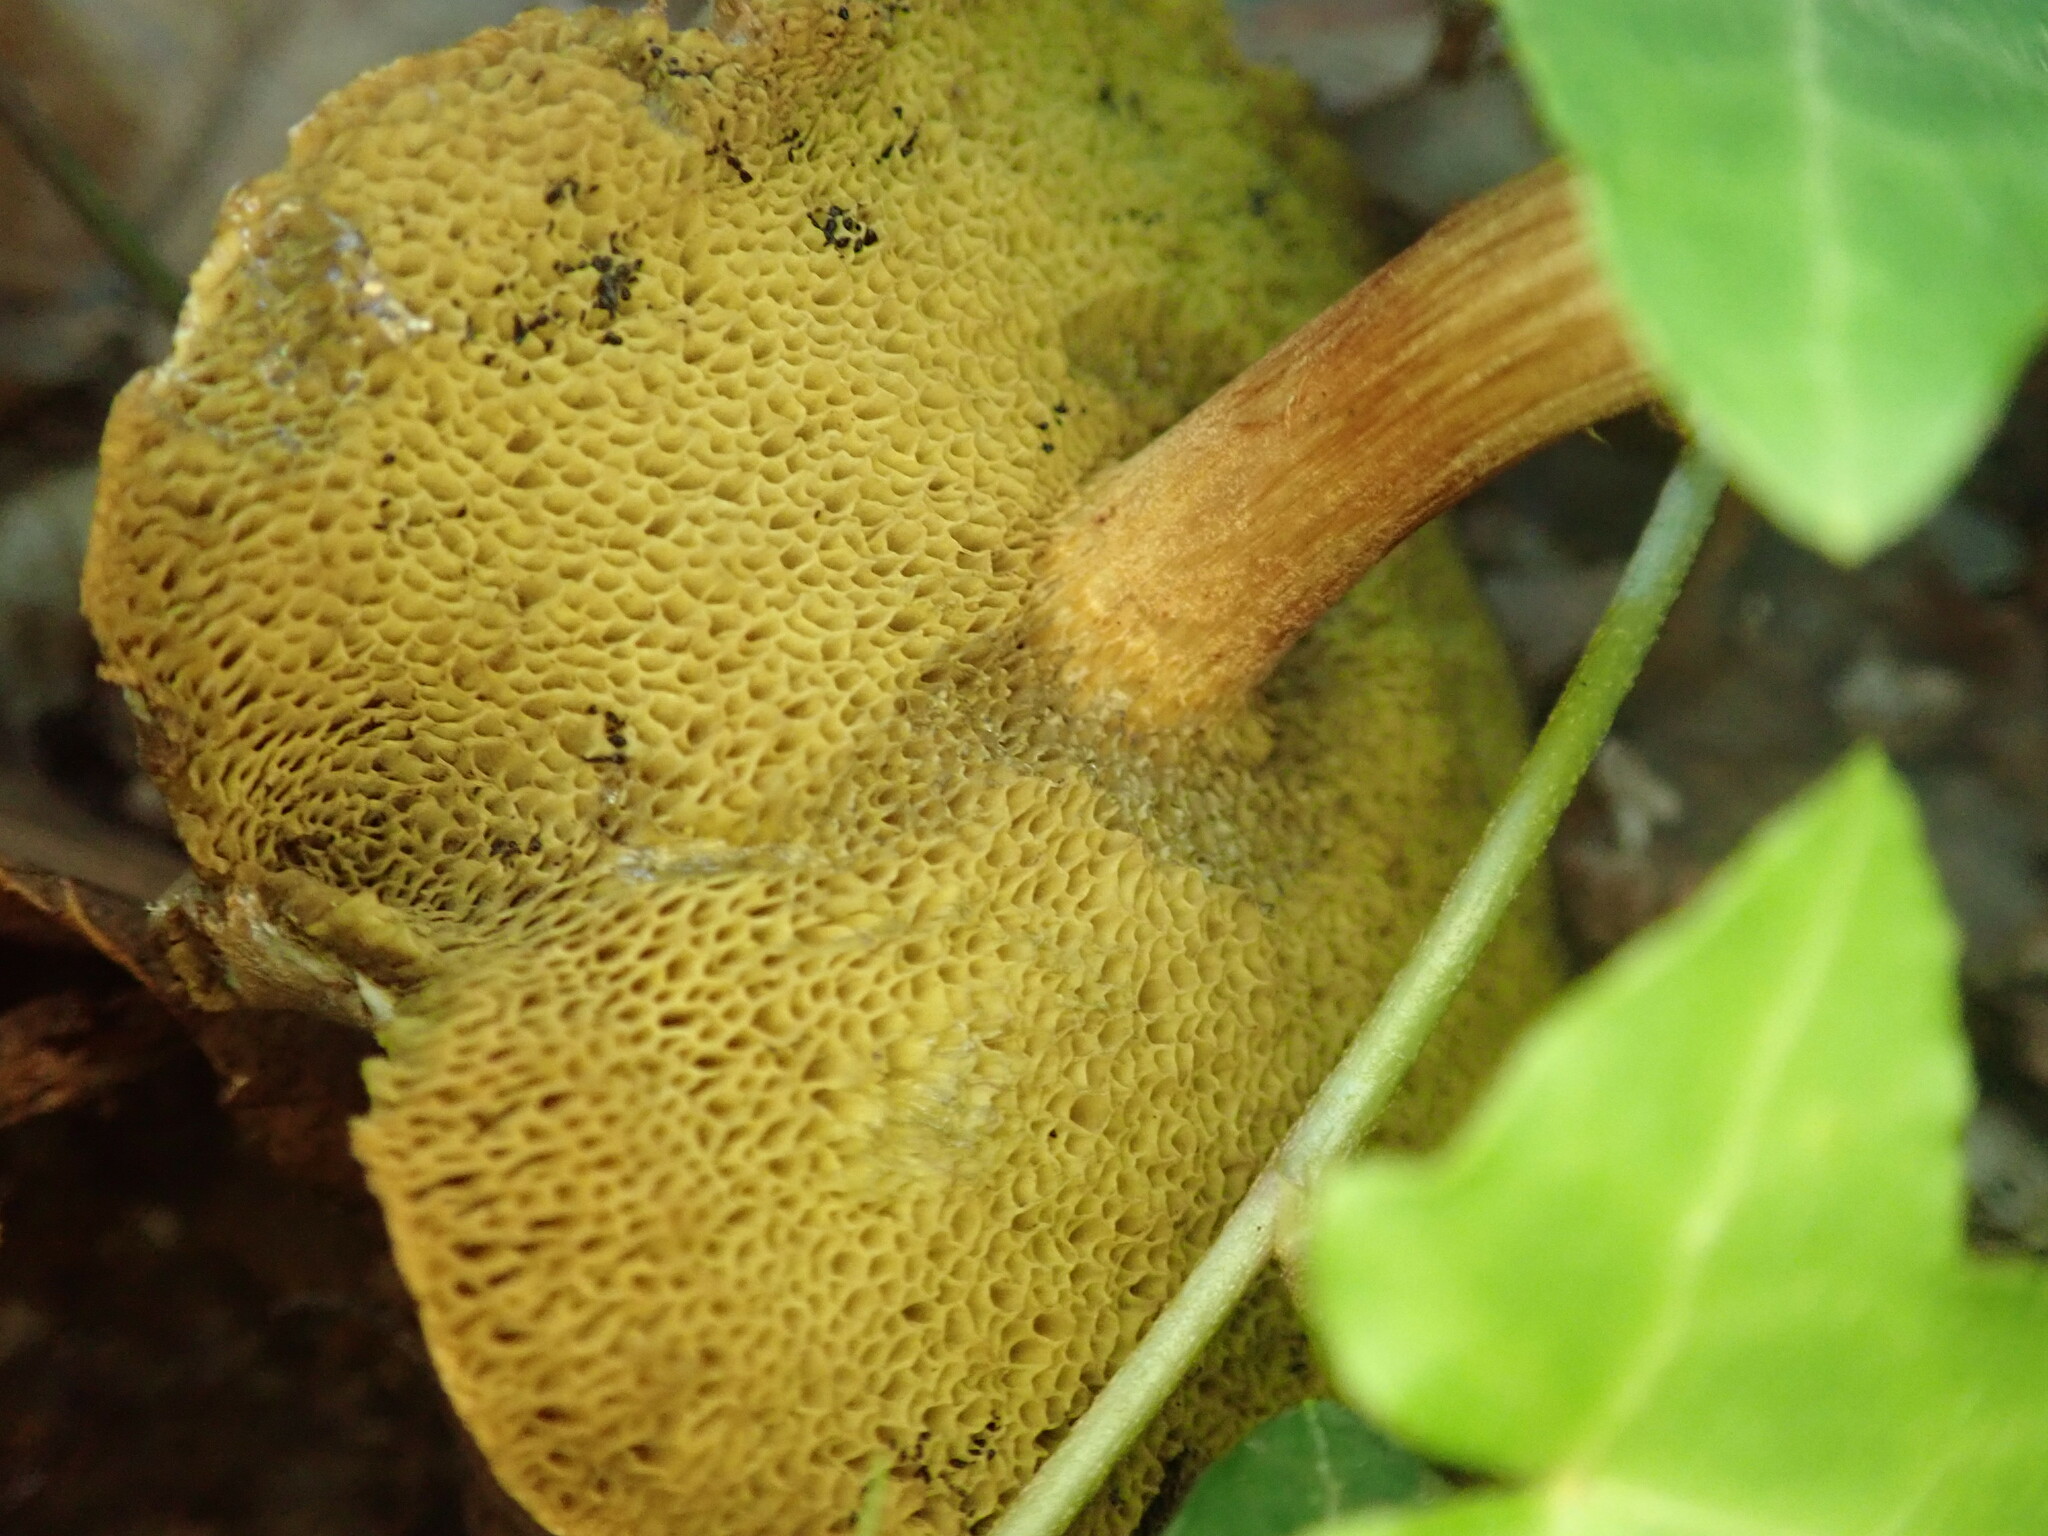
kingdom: Fungi
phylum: Basidiomycota
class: Agaricomycetes
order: Boletales
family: Boletaceae
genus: Xerocomellus
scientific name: Xerocomellus chrysenteron
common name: Red-cracking bolete
